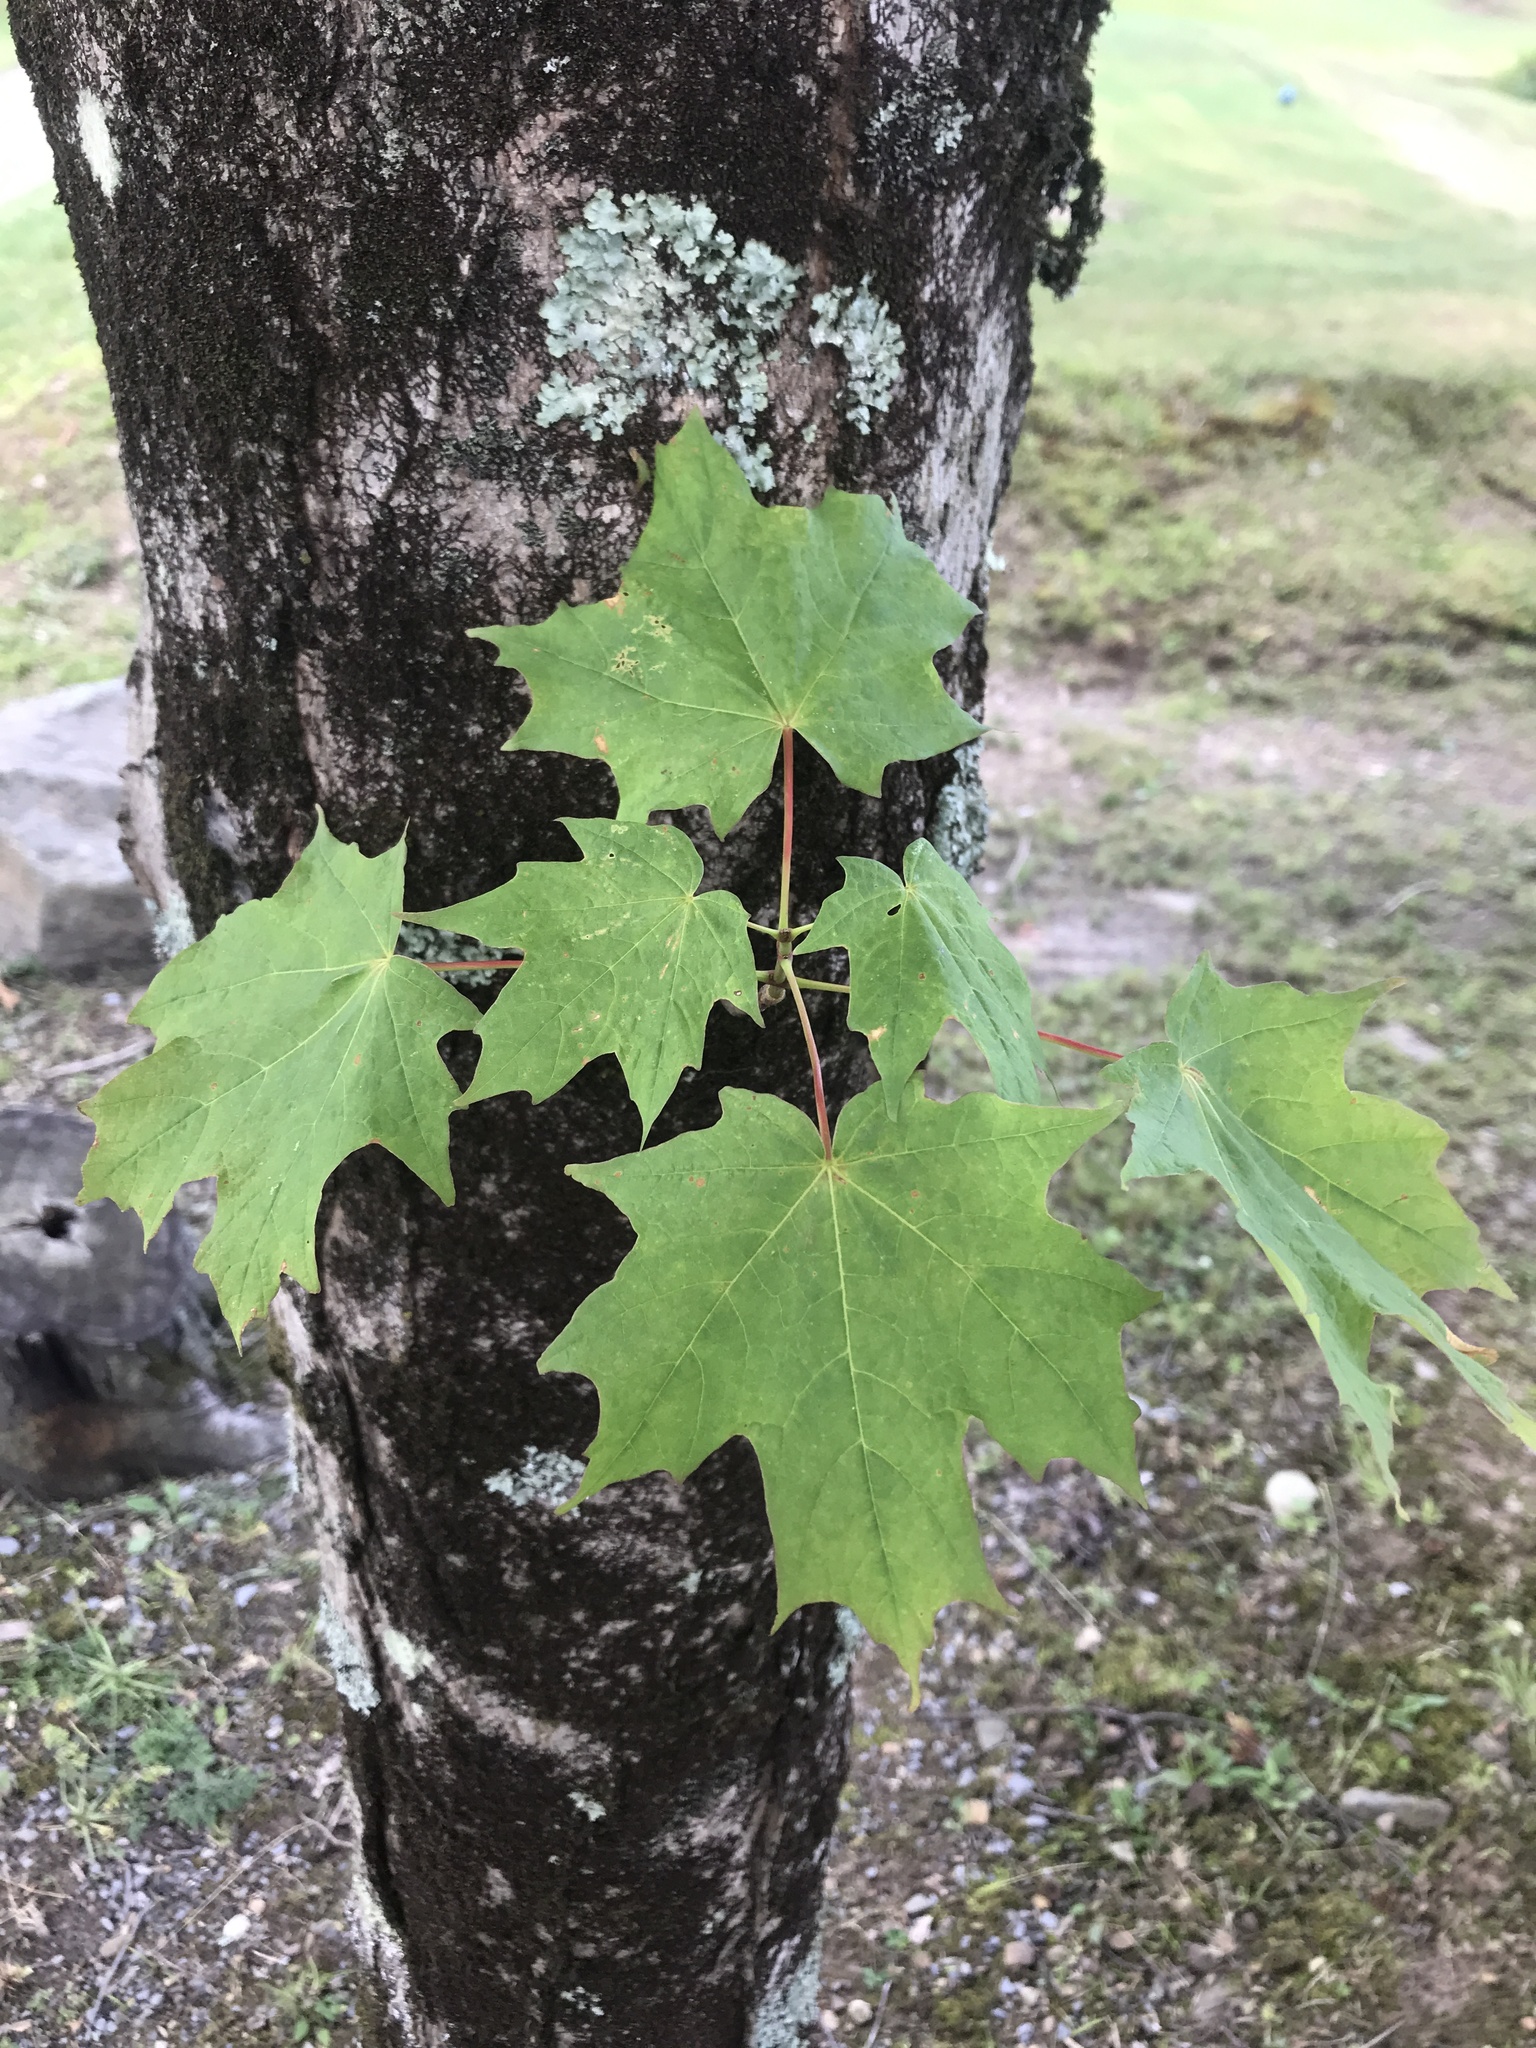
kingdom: Plantae
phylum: Tracheophyta
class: Magnoliopsida
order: Sapindales
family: Sapindaceae
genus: Acer
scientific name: Acer saccharum
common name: Sugar maple
